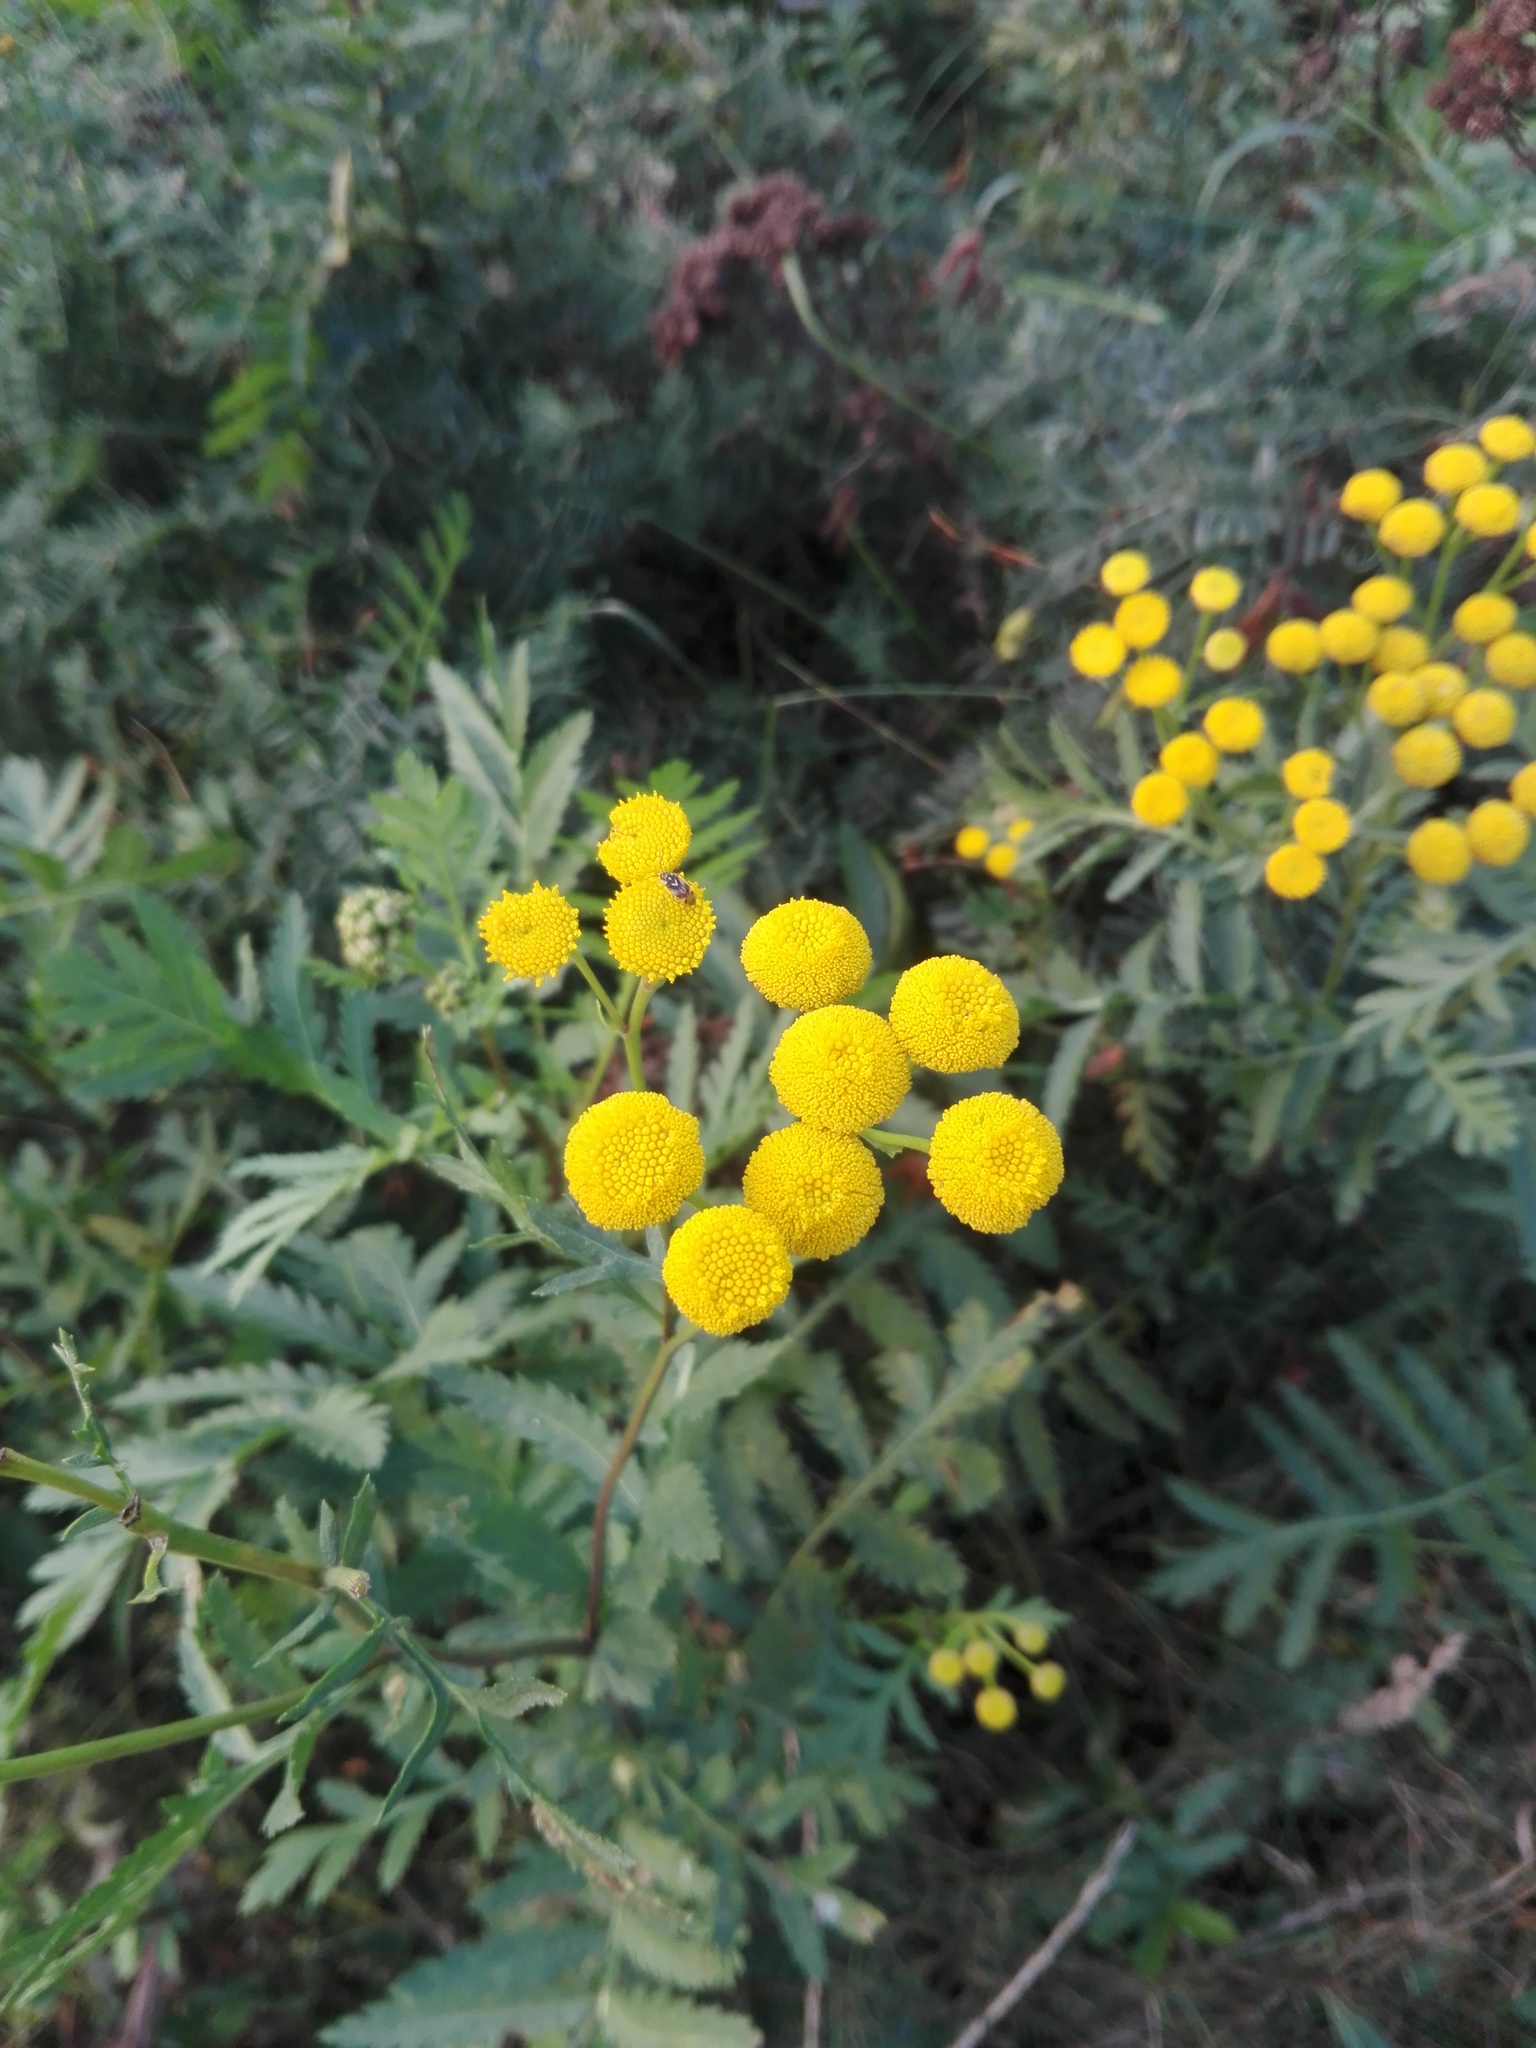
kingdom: Plantae
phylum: Tracheophyta
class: Magnoliopsida
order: Asterales
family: Asteraceae
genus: Tanacetum
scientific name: Tanacetum vulgare
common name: Common tansy
